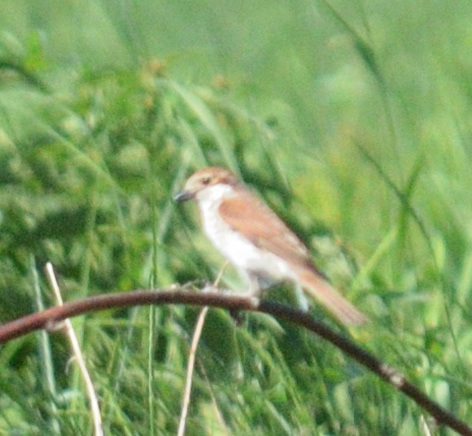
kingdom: Animalia
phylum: Chordata
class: Aves
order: Passeriformes
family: Laniidae
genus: Lanius
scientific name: Lanius collurio
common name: Red-backed shrike
